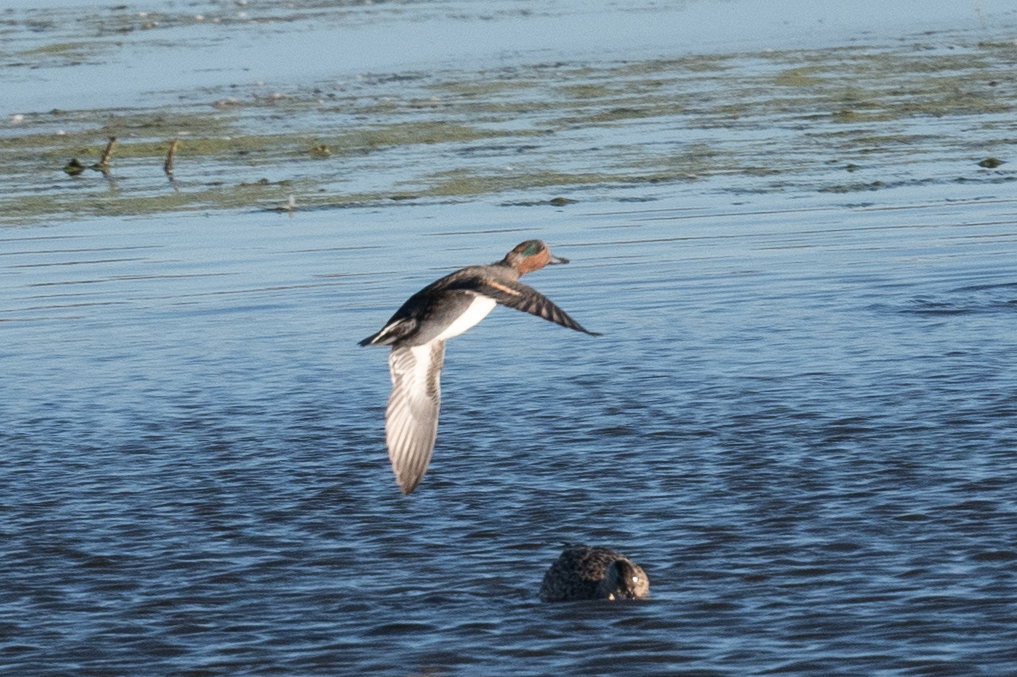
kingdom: Animalia
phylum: Chordata
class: Aves
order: Anseriformes
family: Anatidae
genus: Anas
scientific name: Anas crecca
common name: Eurasian teal
